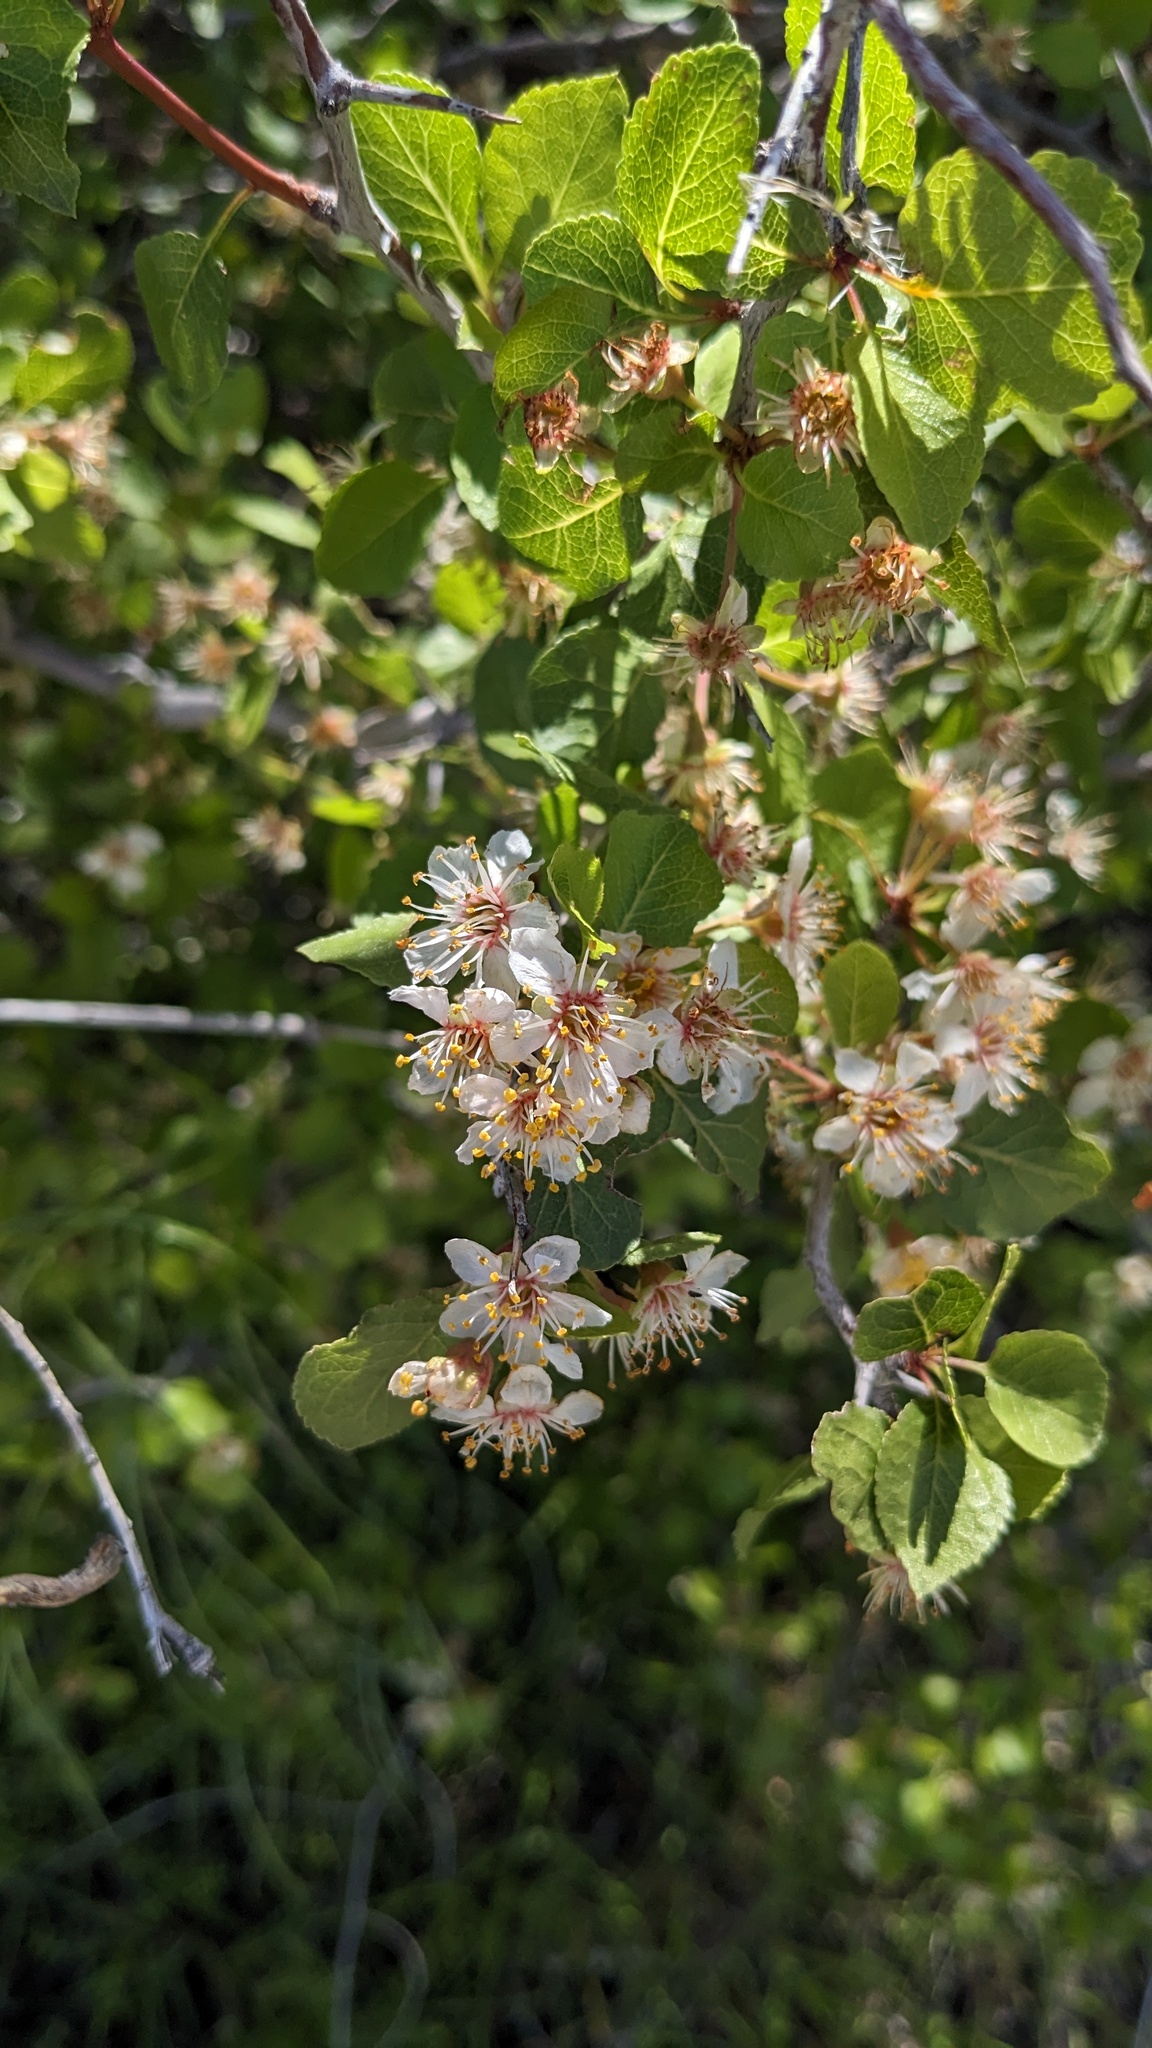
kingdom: Plantae
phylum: Tracheophyta
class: Magnoliopsida
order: Rosales
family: Rosaceae
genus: Prunus
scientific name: Prunus fremontii
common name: Desert apricot
